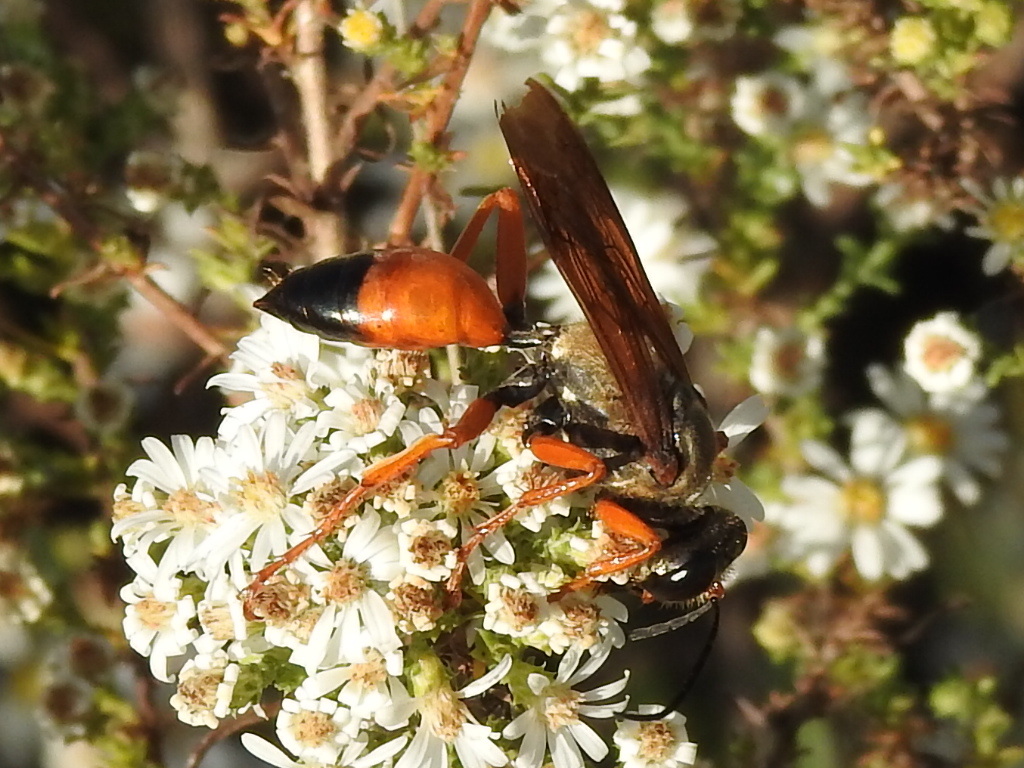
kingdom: Animalia
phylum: Arthropoda
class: Insecta
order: Hymenoptera
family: Sphecidae
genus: Sphex
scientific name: Sphex ichneumoneus
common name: Great golden digger wasp
